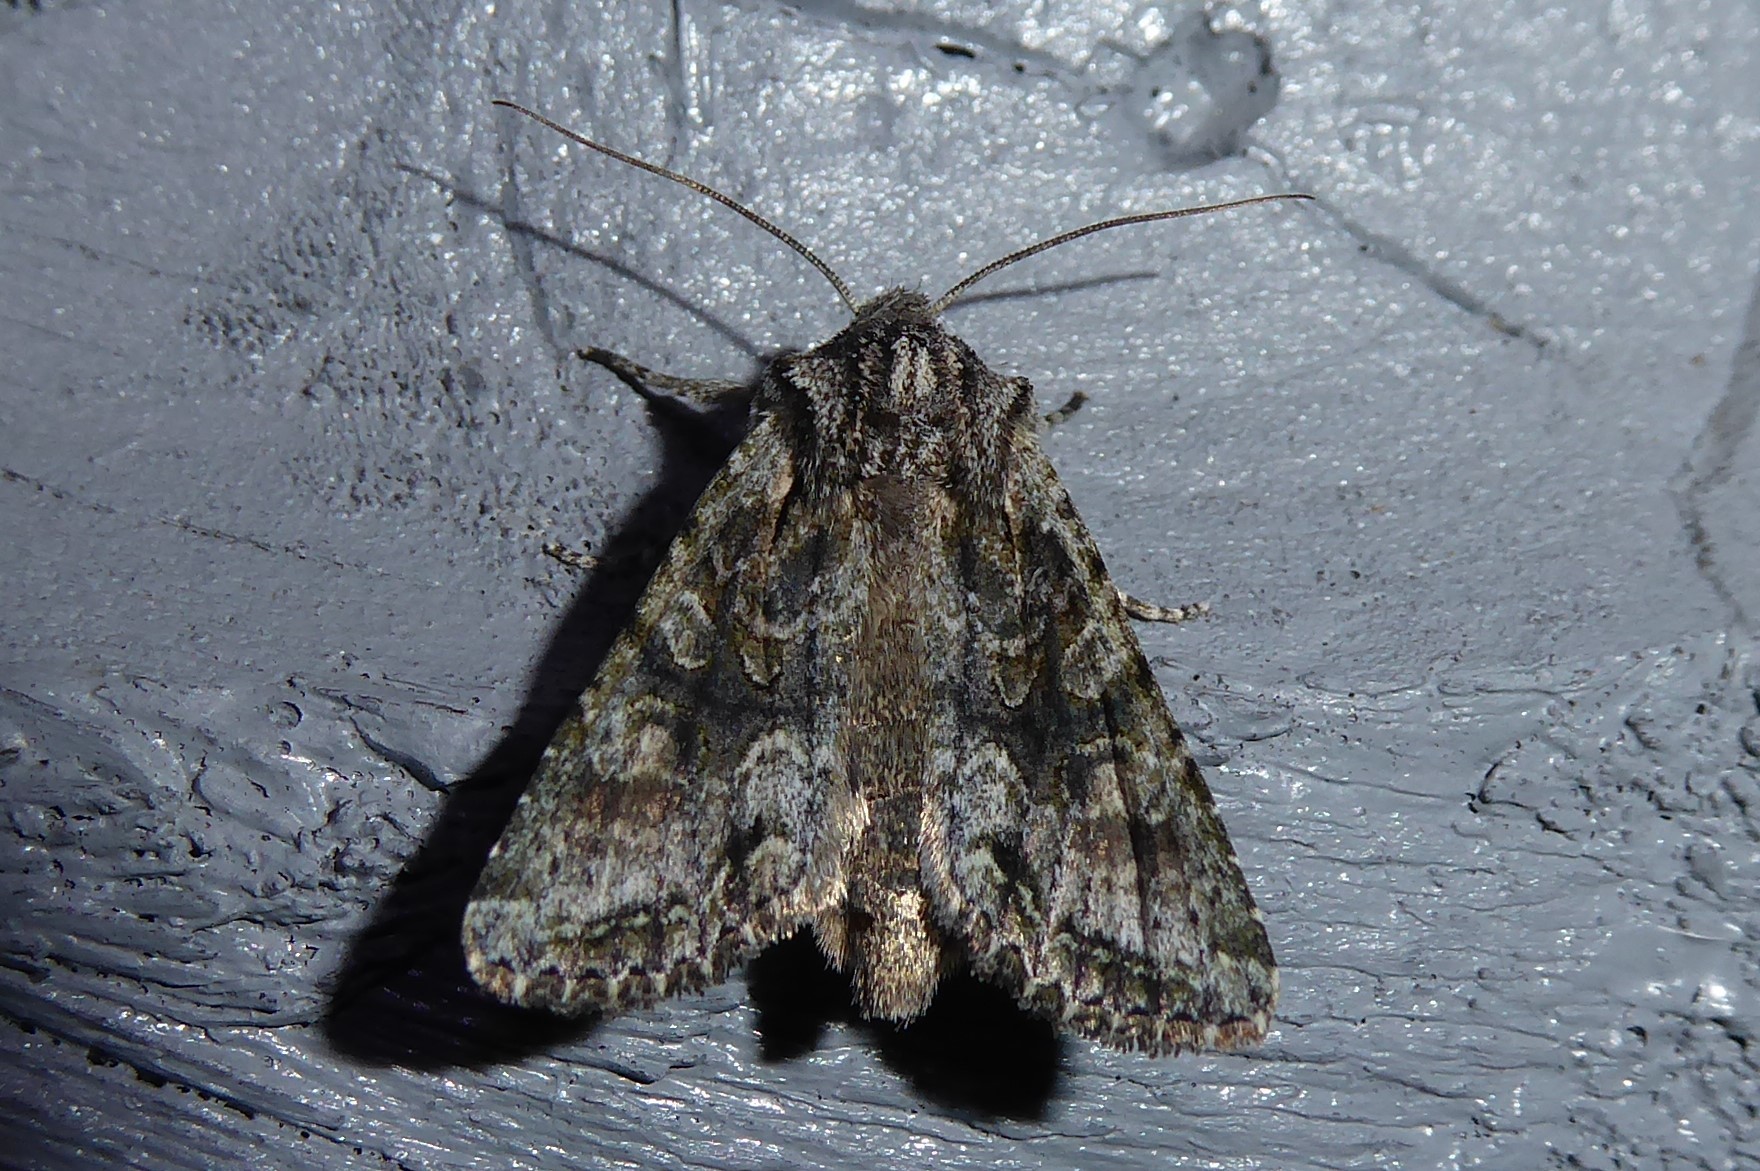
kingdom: Animalia
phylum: Arthropoda
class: Insecta
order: Lepidoptera
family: Noctuidae
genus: Ichneutica
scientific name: Ichneutica mutans
